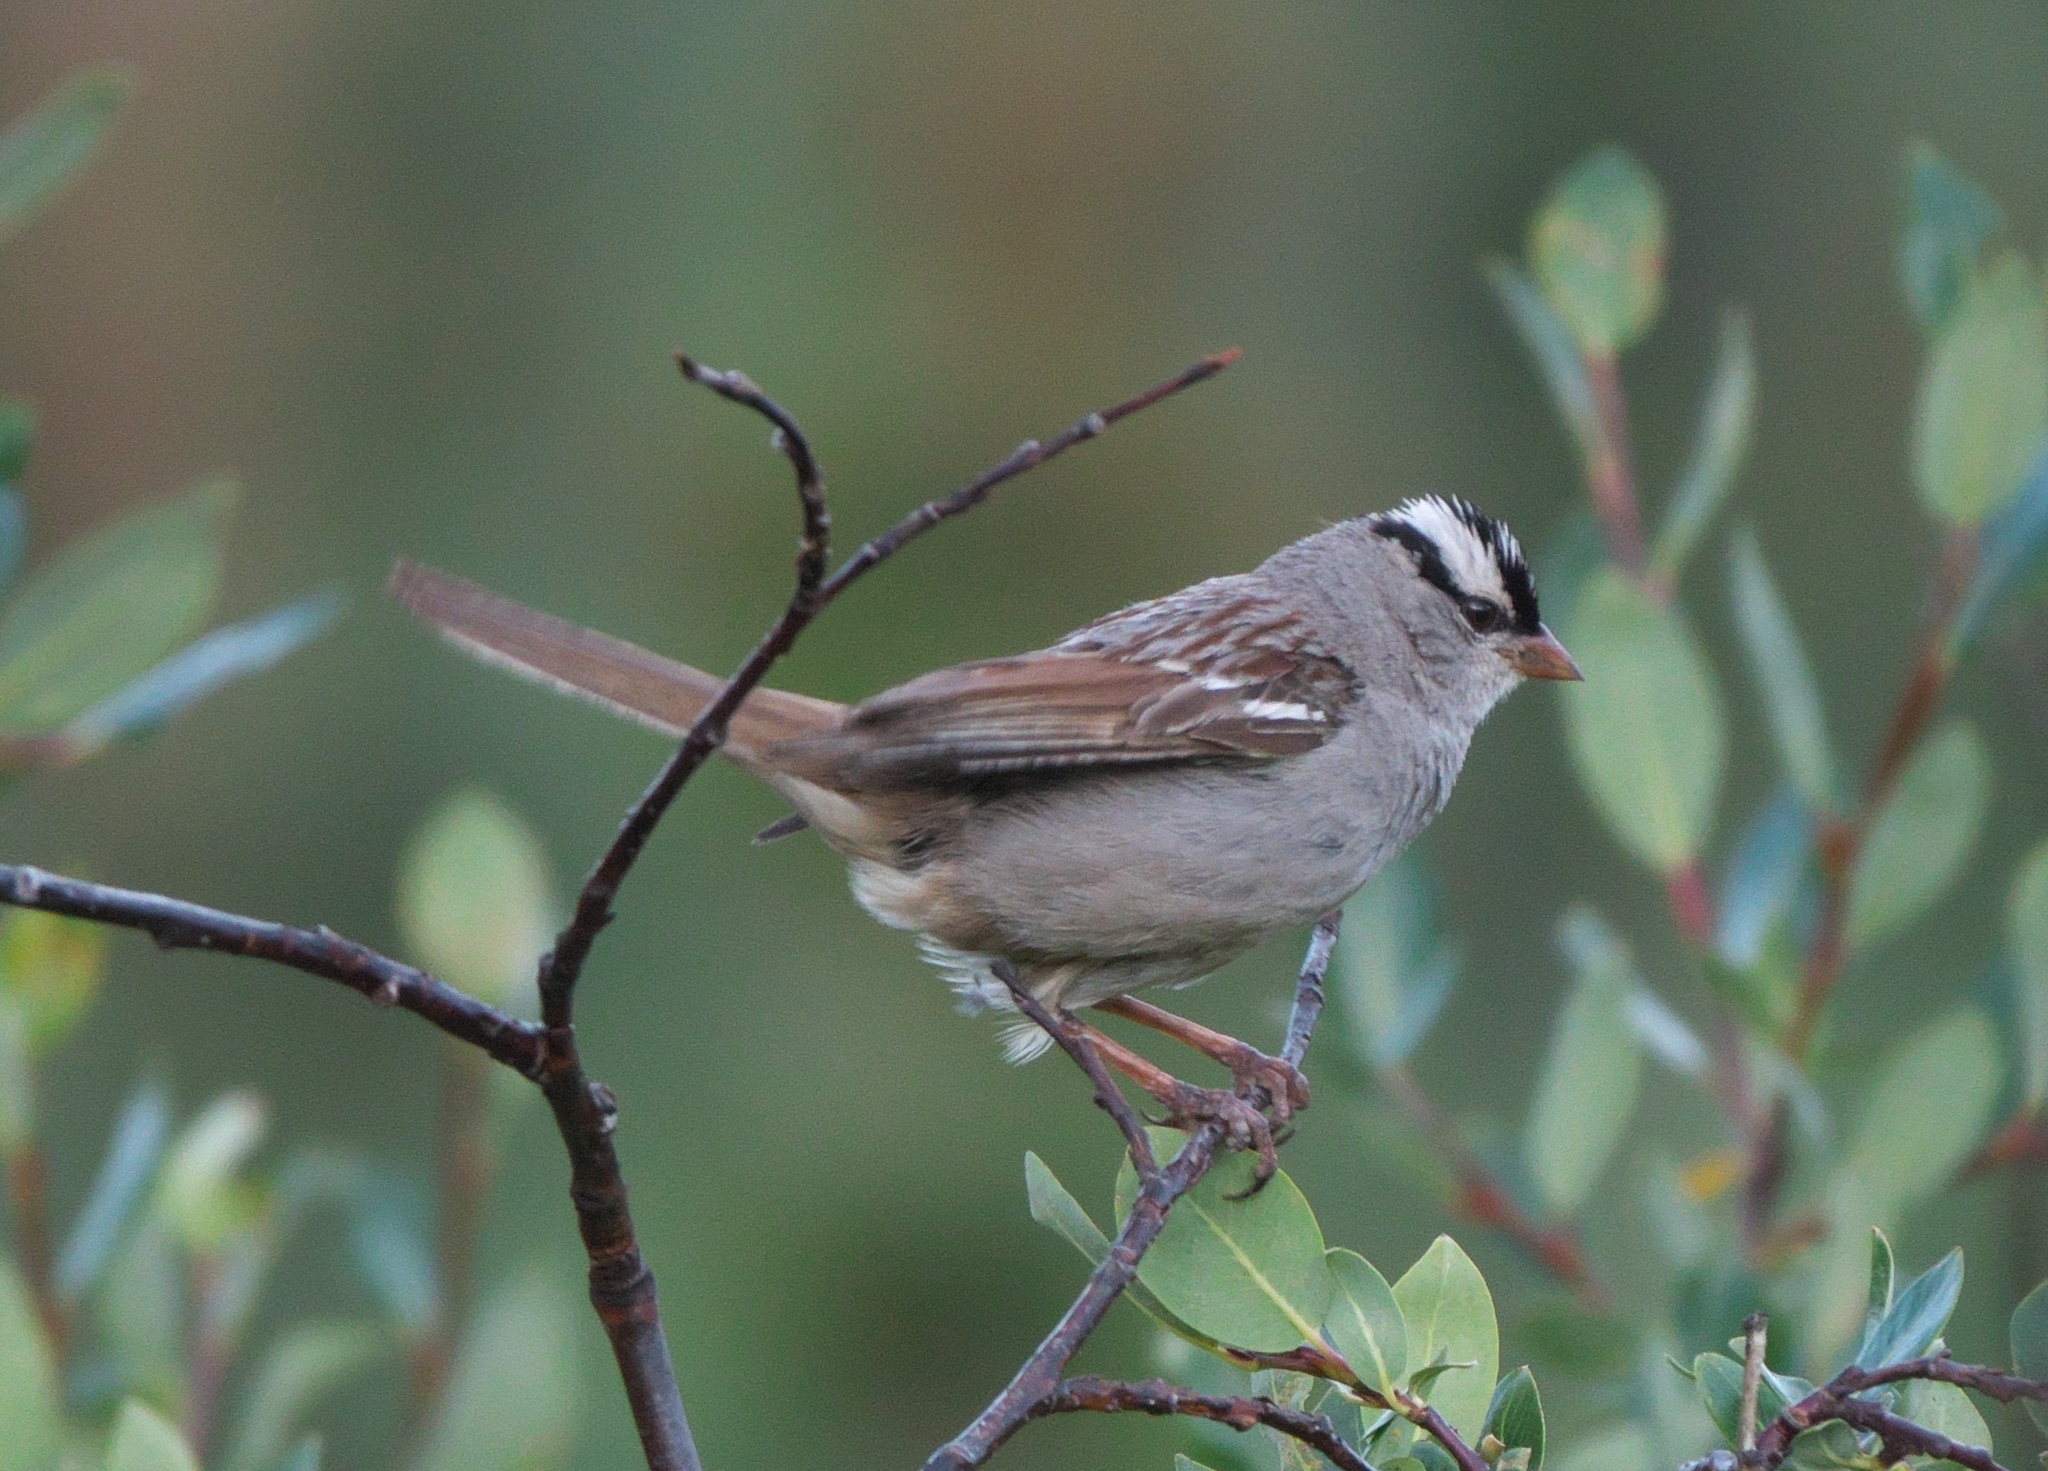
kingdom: Animalia
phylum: Chordata
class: Aves
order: Passeriformes
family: Passerellidae
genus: Zonotrichia
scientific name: Zonotrichia leucophrys
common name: White-crowned sparrow
